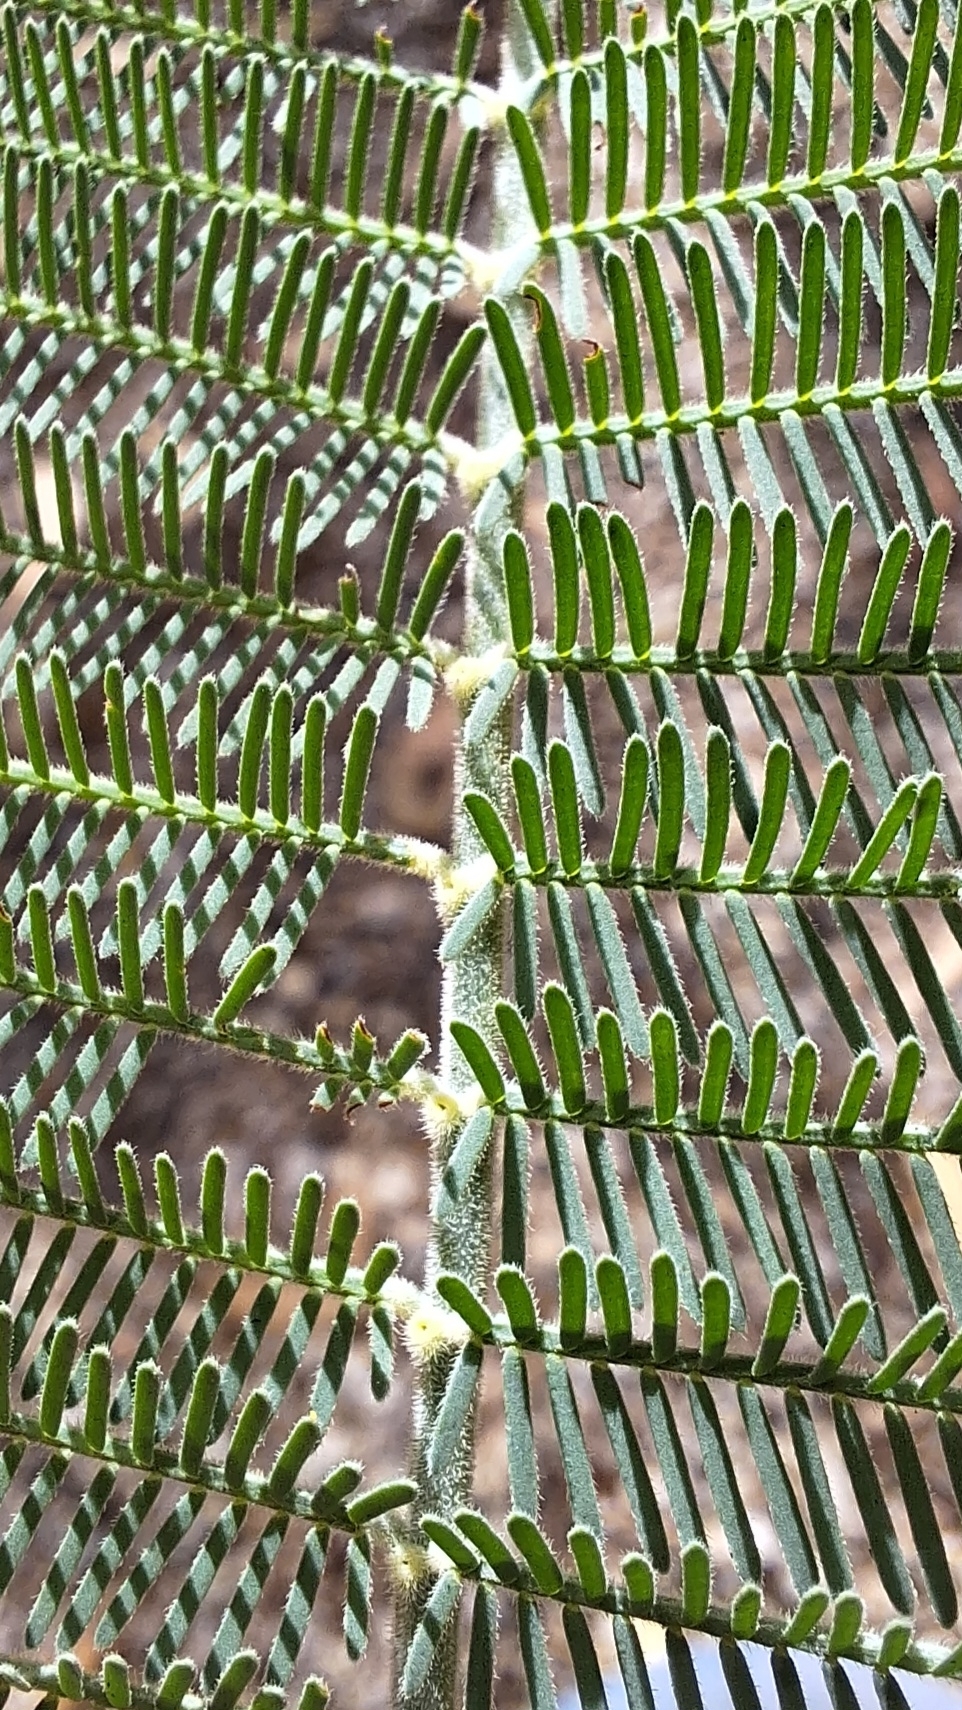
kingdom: Plantae
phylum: Tracheophyta
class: Magnoliopsida
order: Fabales
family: Fabaceae
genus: Acacia
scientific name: Acacia dealbata
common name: Silver wattle
